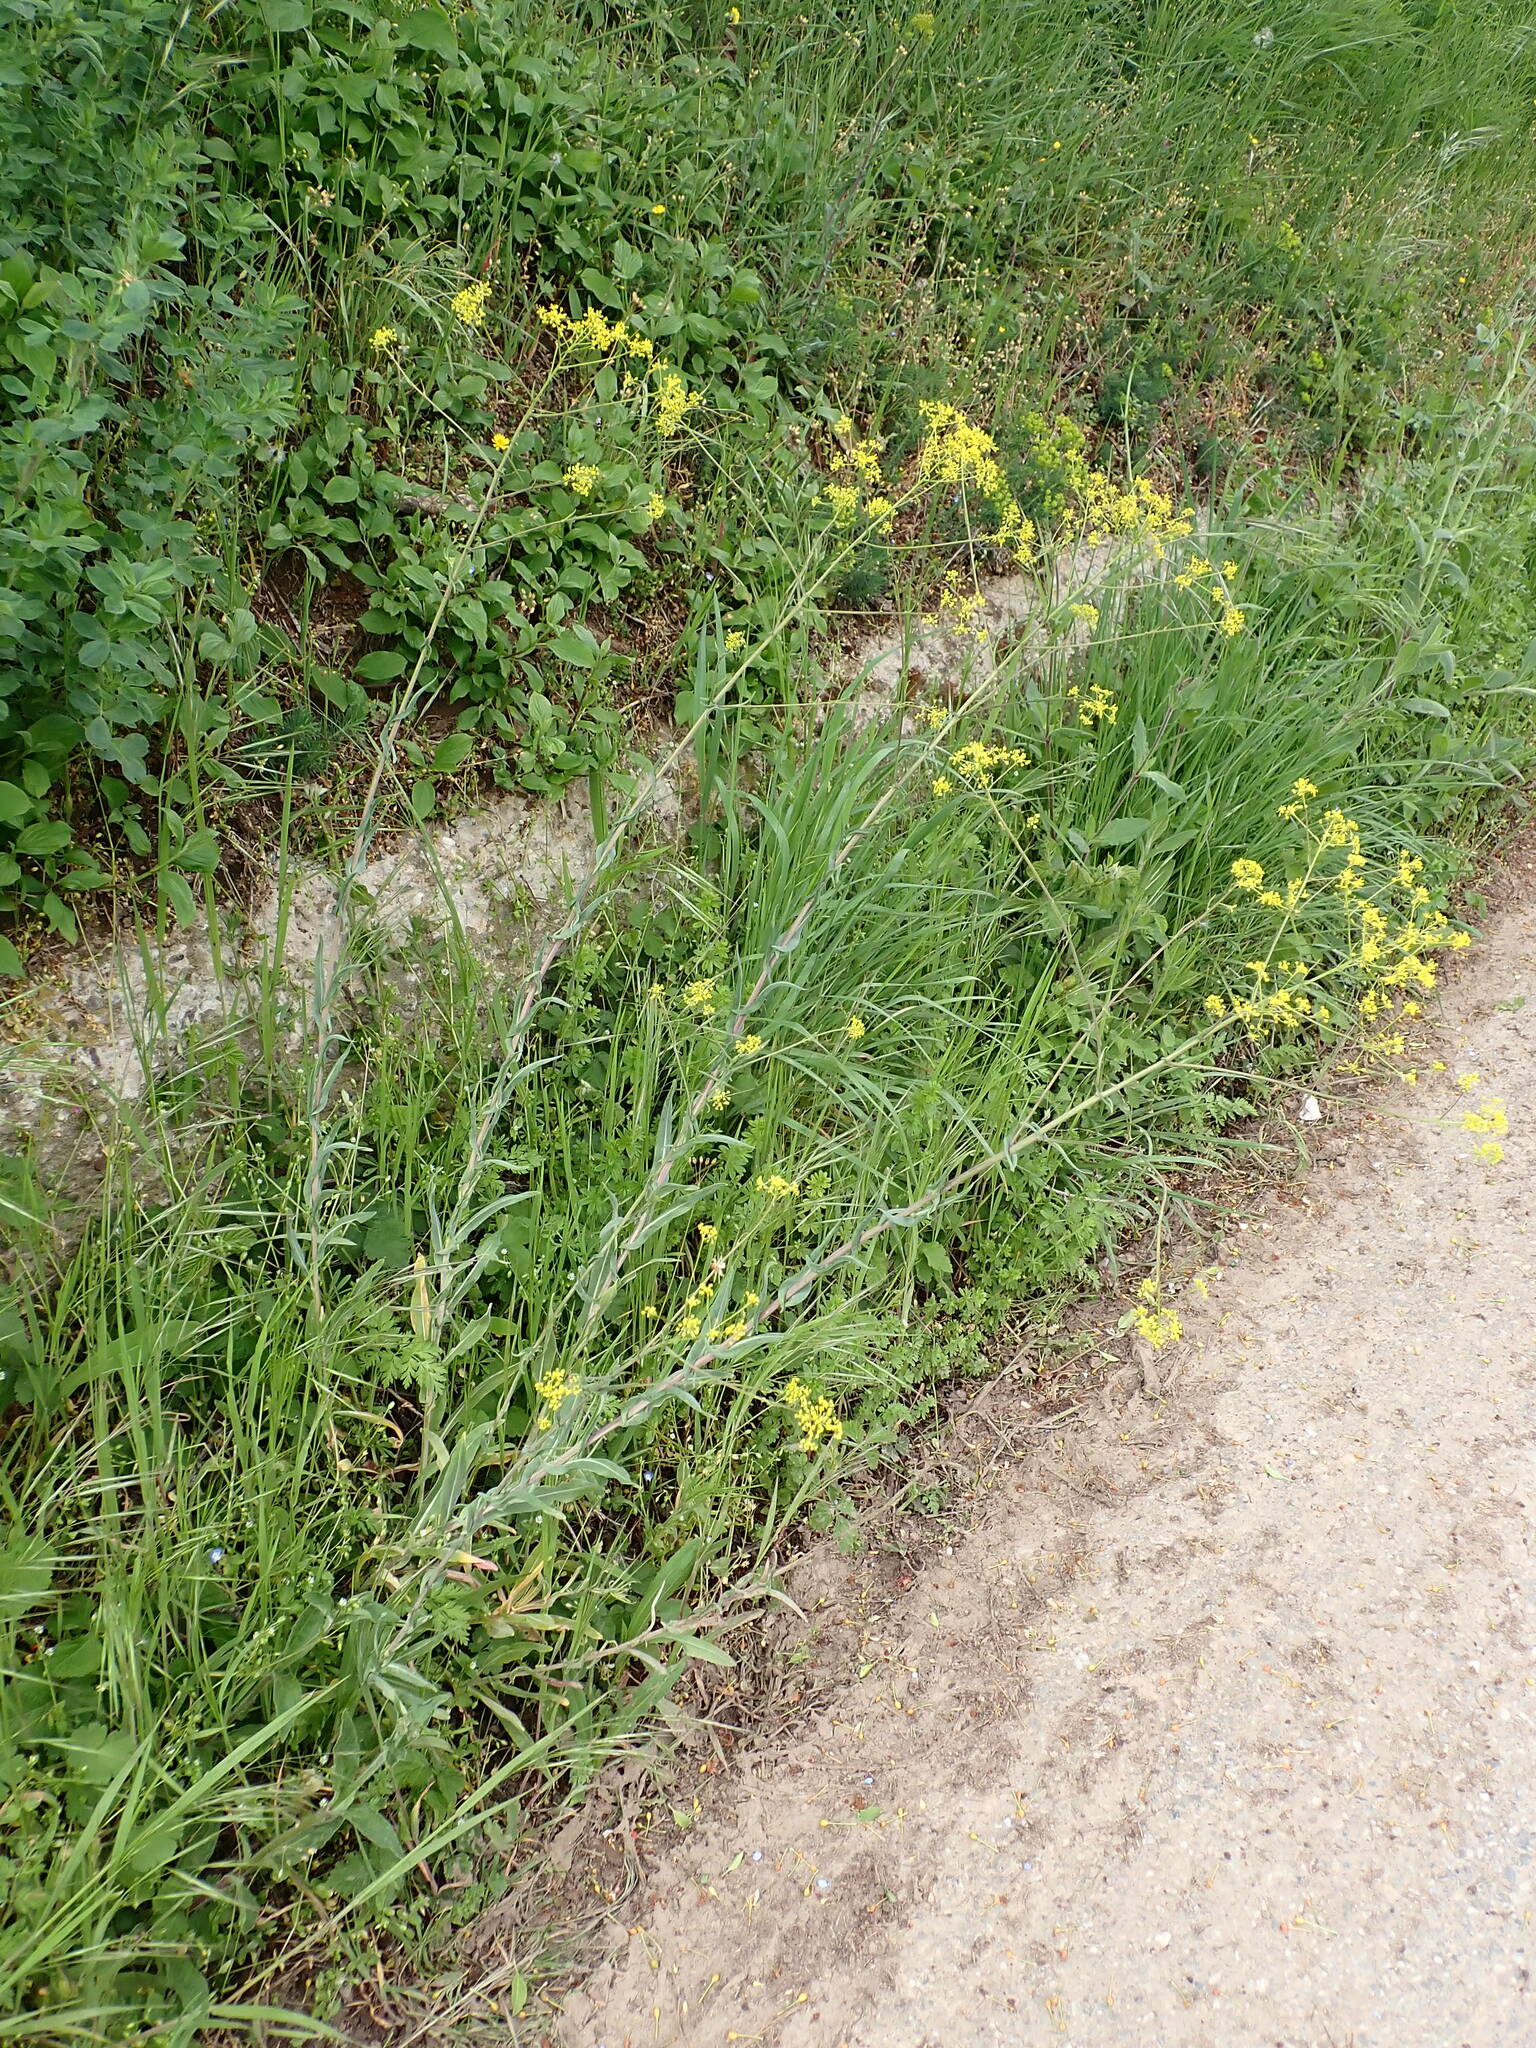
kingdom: Plantae
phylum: Tracheophyta
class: Magnoliopsida
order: Brassicales
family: Brassicaceae
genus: Isatis
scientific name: Isatis tinctoria
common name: Woad
